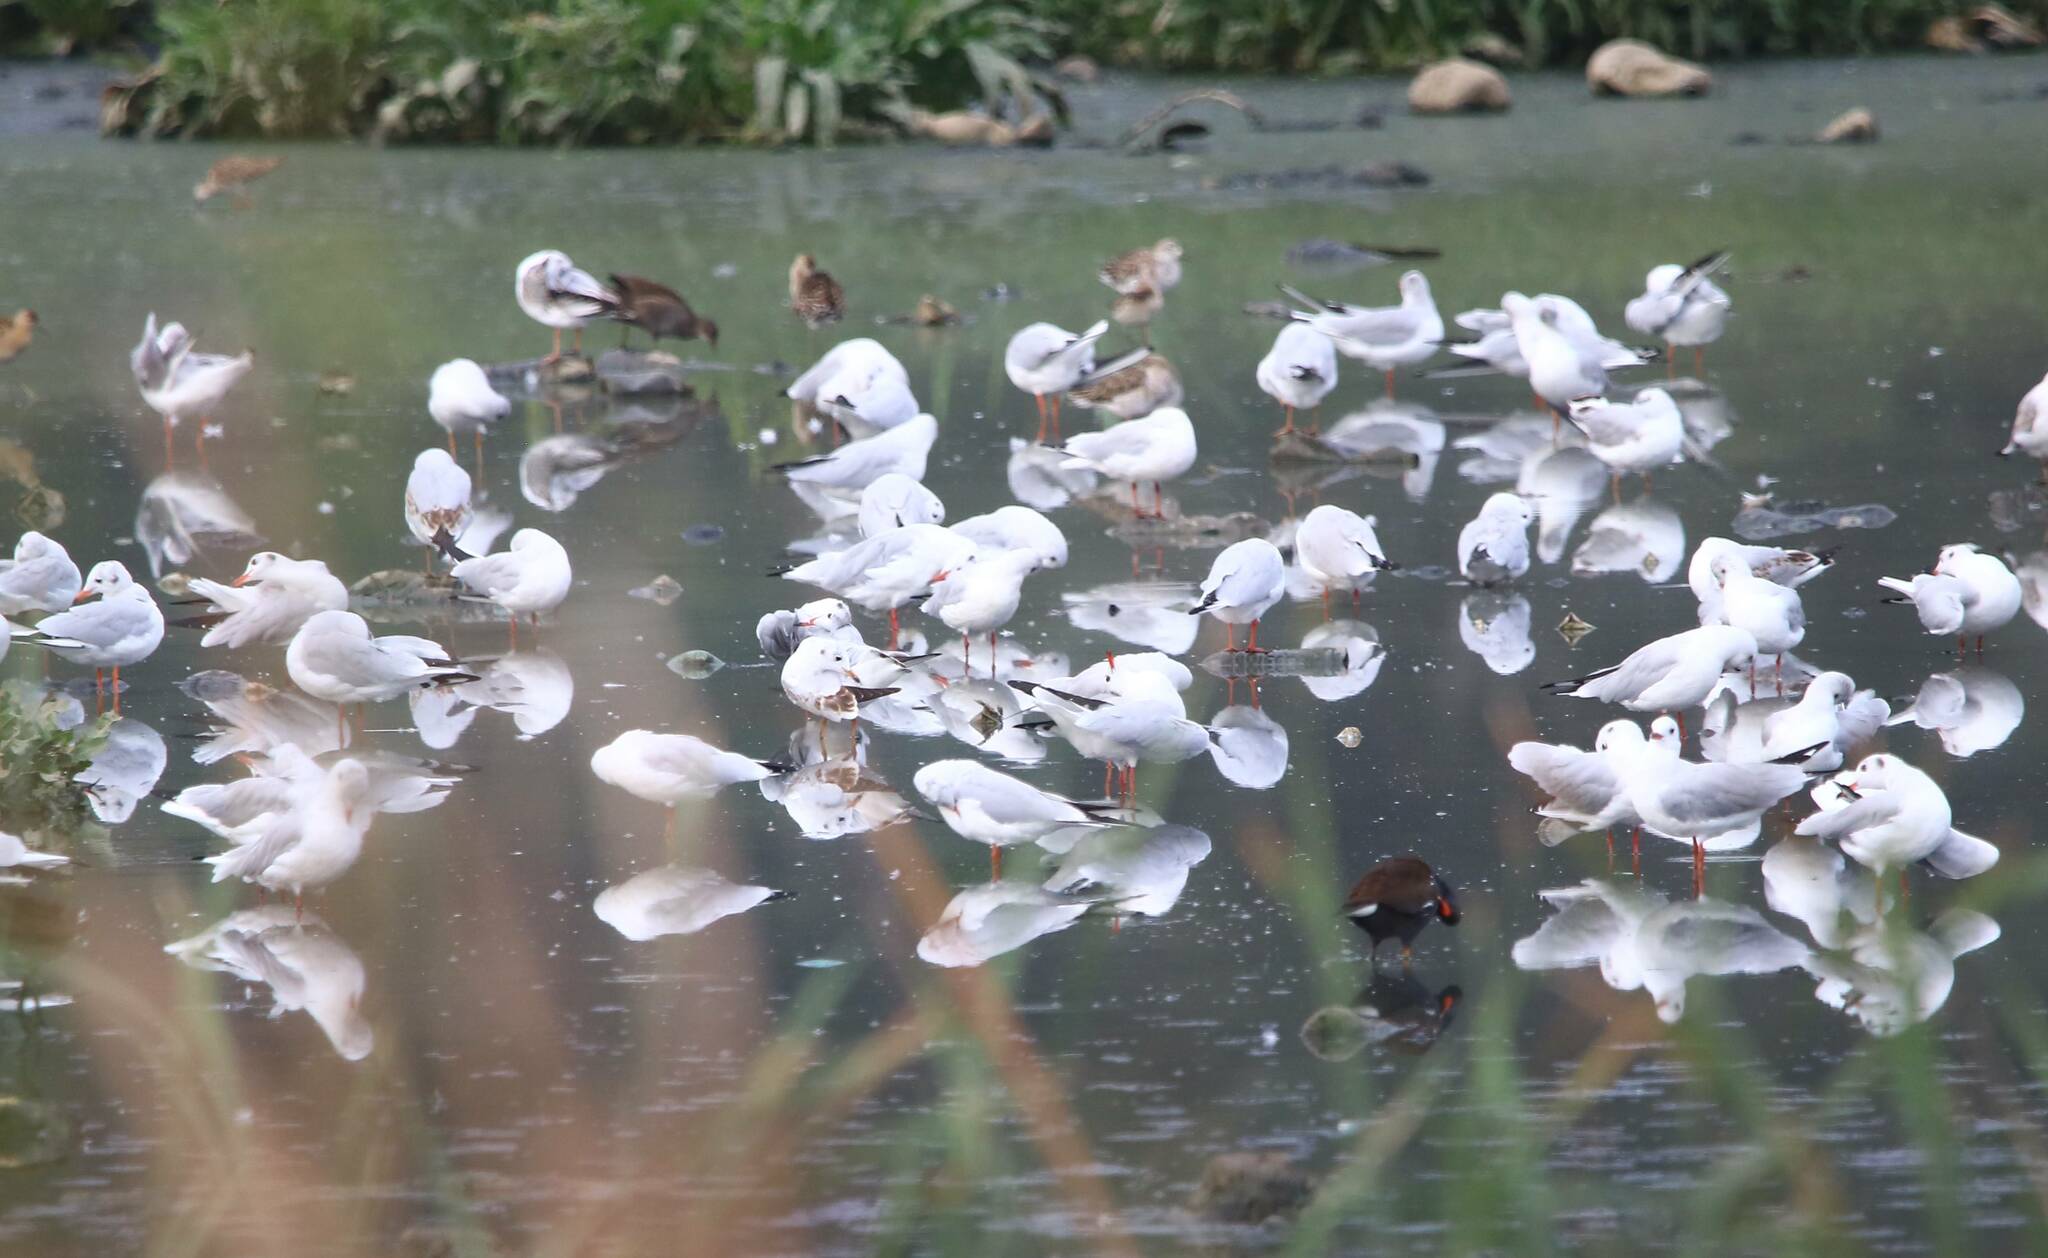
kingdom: Animalia
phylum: Chordata
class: Aves
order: Charadriiformes
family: Laridae
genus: Chroicocephalus
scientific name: Chroicocephalus ridibundus
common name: Black-headed gull
